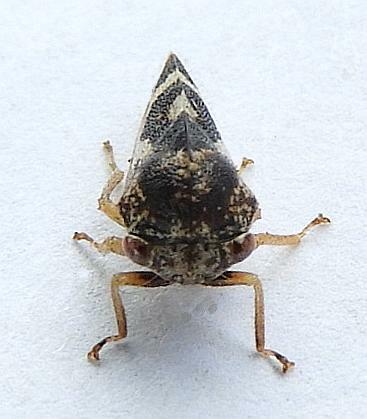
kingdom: Animalia
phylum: Arthropoda
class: Insecta
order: Hemiptera
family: Membracidae
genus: Cyrtolobus
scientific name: Cyrtolobus vau
